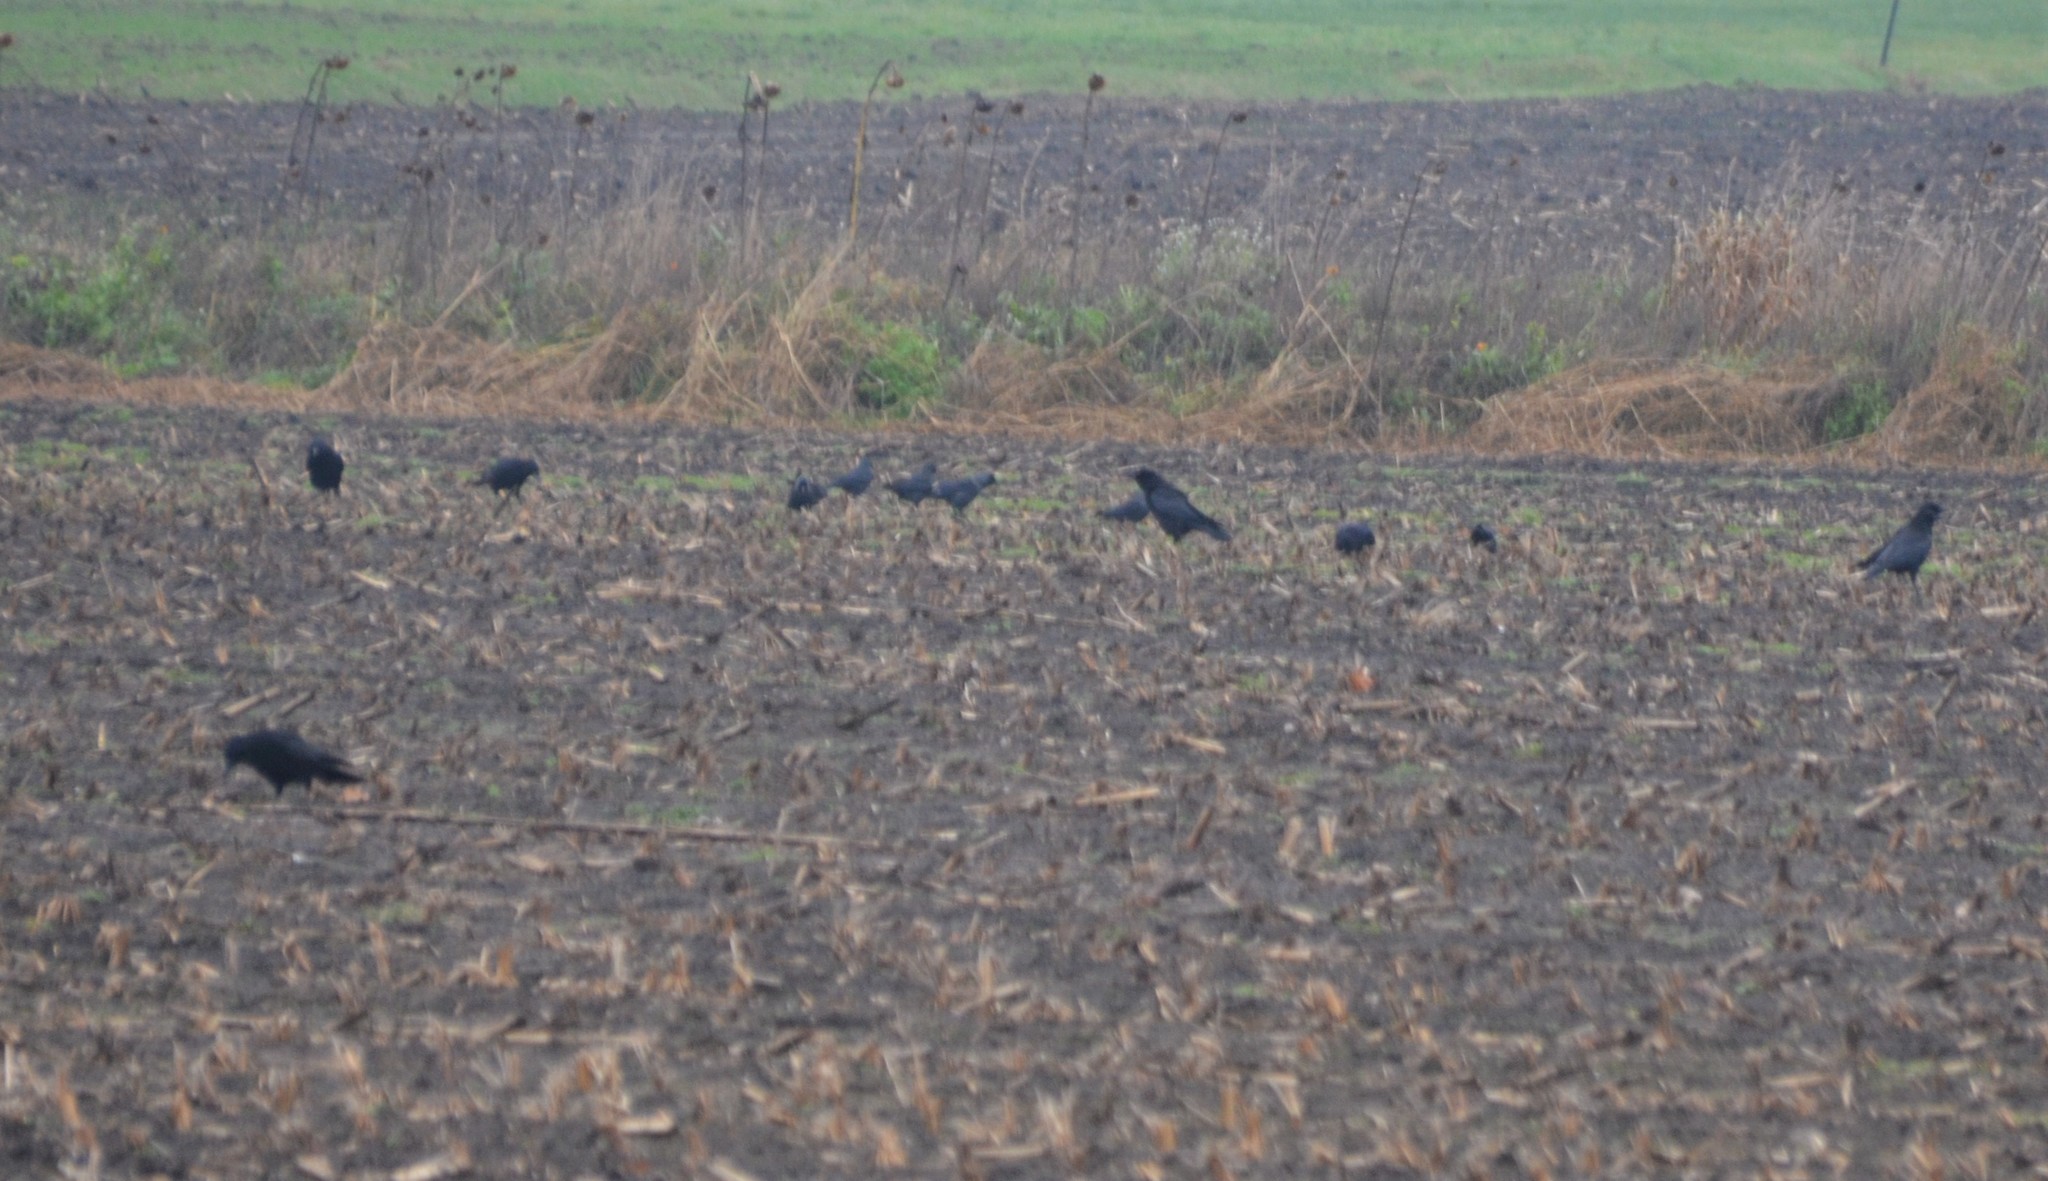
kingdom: Animalia
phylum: Chordata
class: Aves
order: Passeriformes
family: Corvidae
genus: Corvus
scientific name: Corvus corone
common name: Carrion crow
